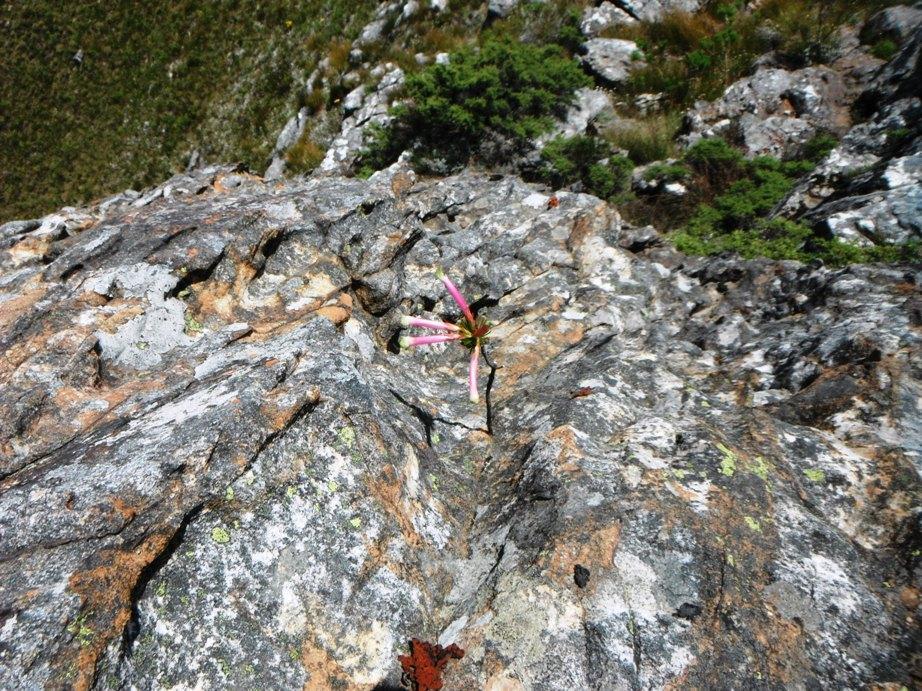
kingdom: Plantae
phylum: Tracheophyta
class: Magnoliopsida
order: Ericales
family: Ericaceae
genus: Erica
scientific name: Erica fascicularis
